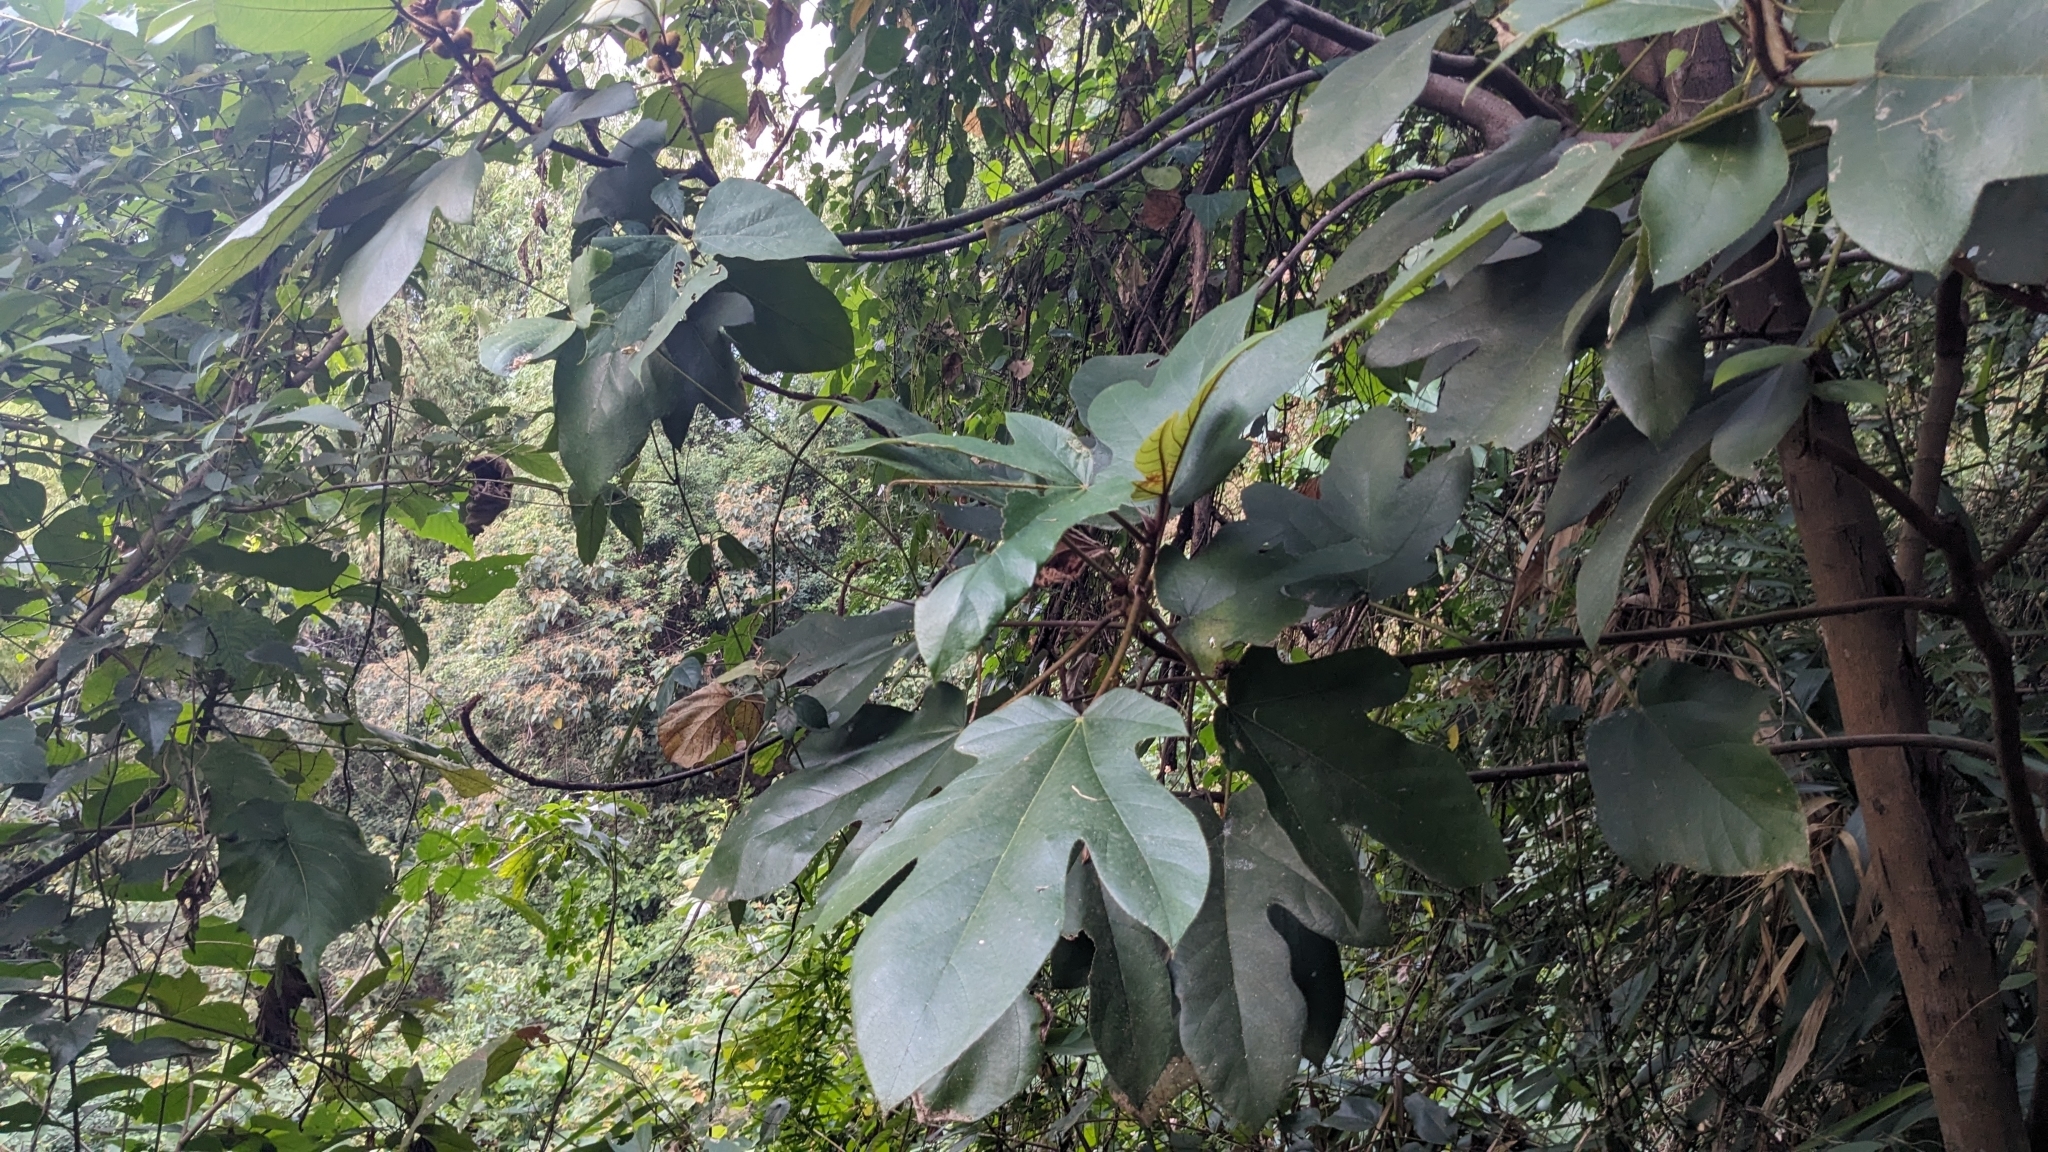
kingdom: Plantae
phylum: Tracheophyta
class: Magnoliopsida
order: Rosales
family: Moraceae
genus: Ficus
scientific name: Ficus triloba
